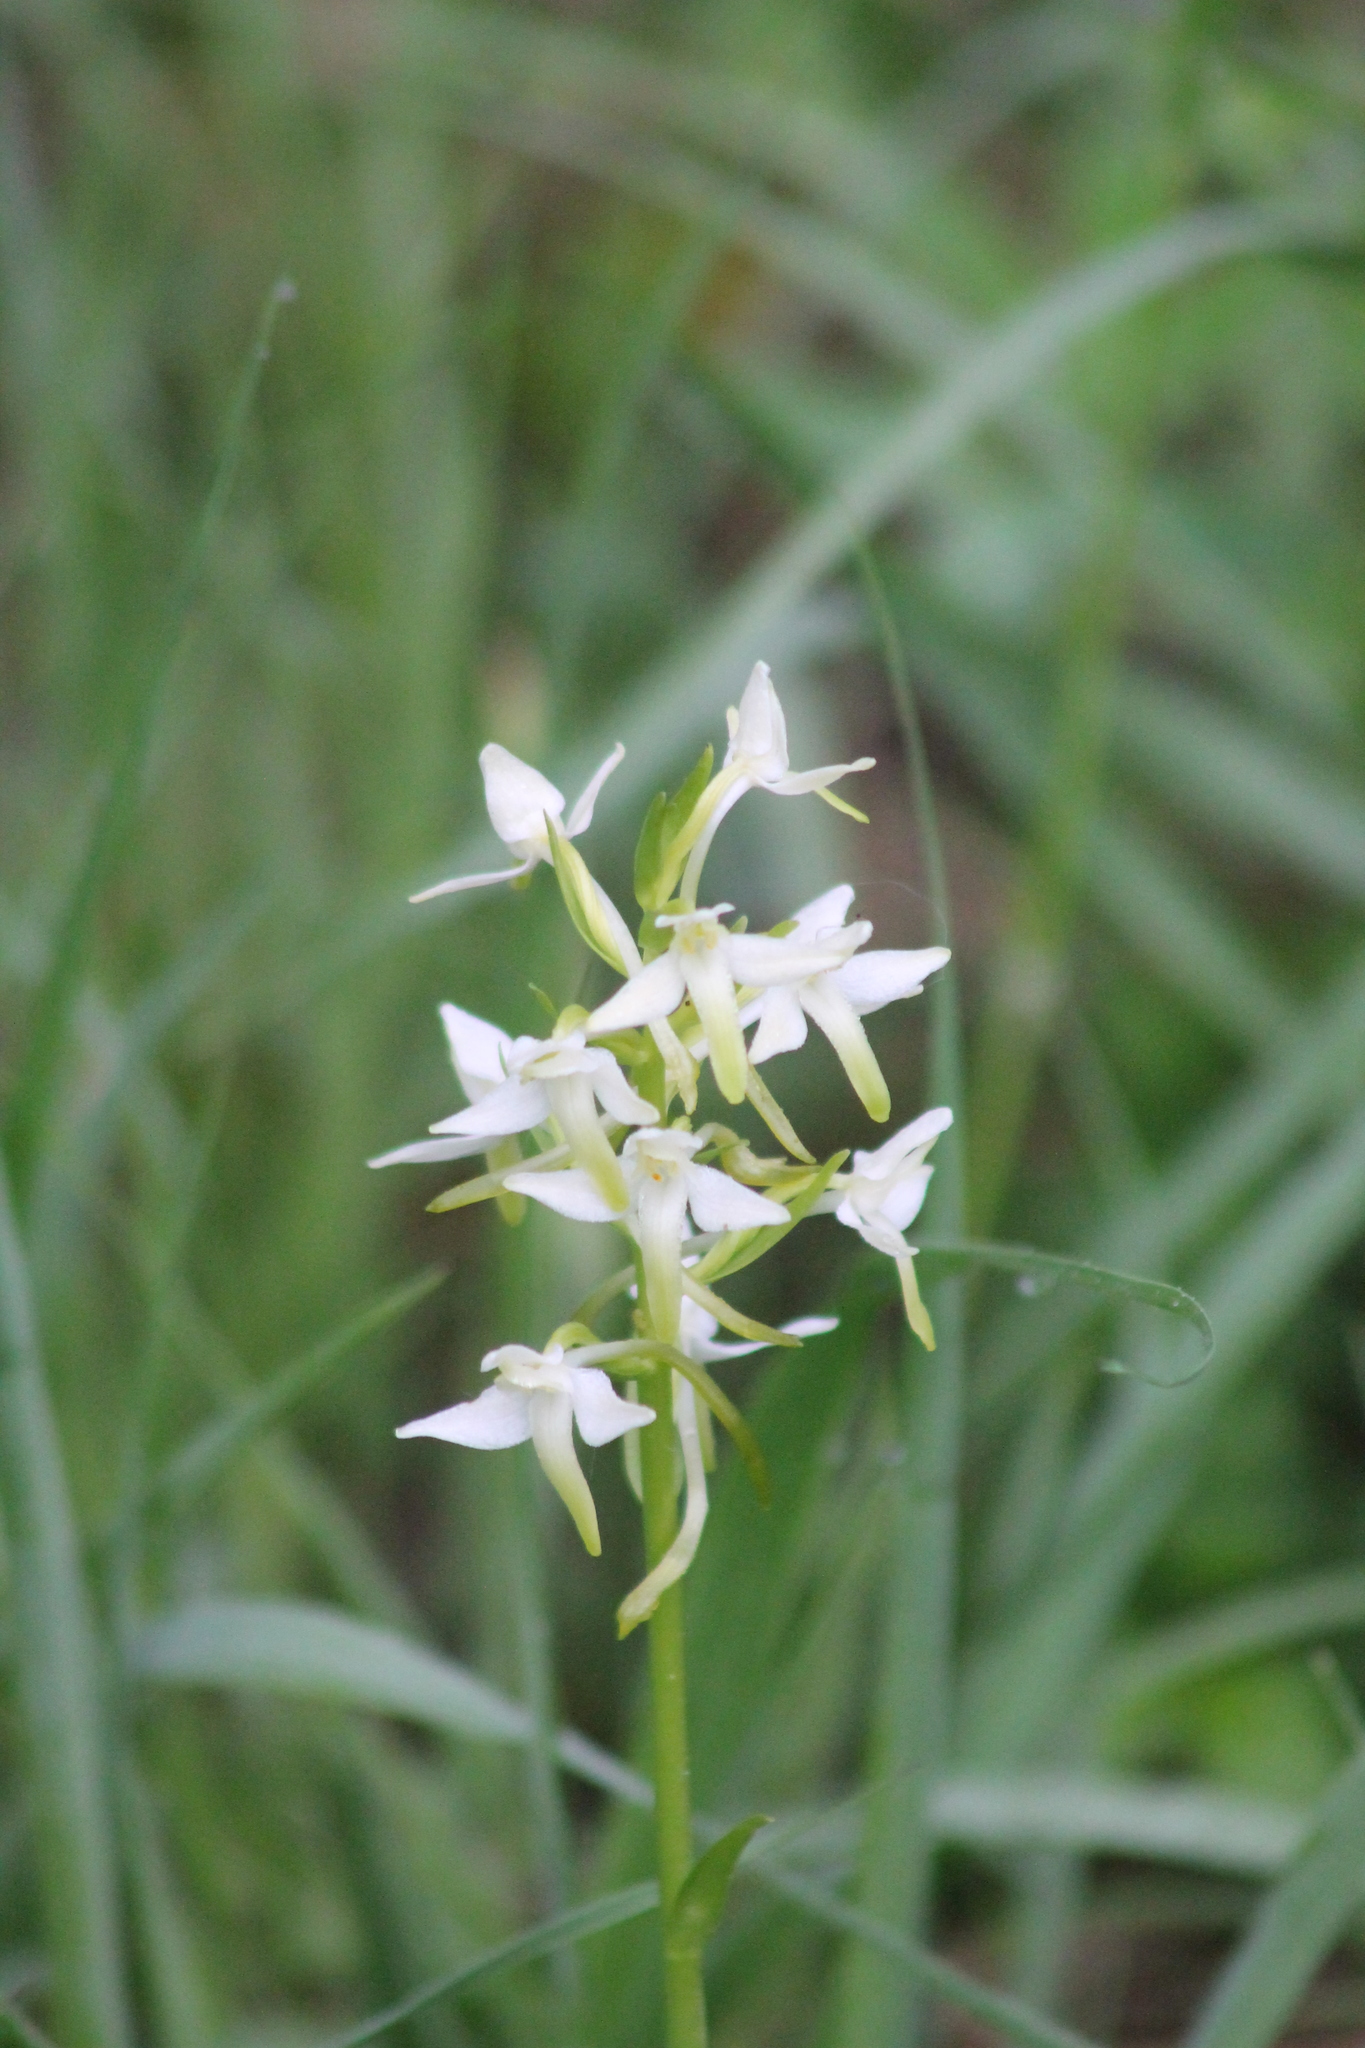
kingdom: Plantae
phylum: Tracheophyta
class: Liliopsida
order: Asparagales
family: Orchidaceae
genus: Platanthera
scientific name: Platanthera bifolia
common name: Lesser butterfly-orchid
